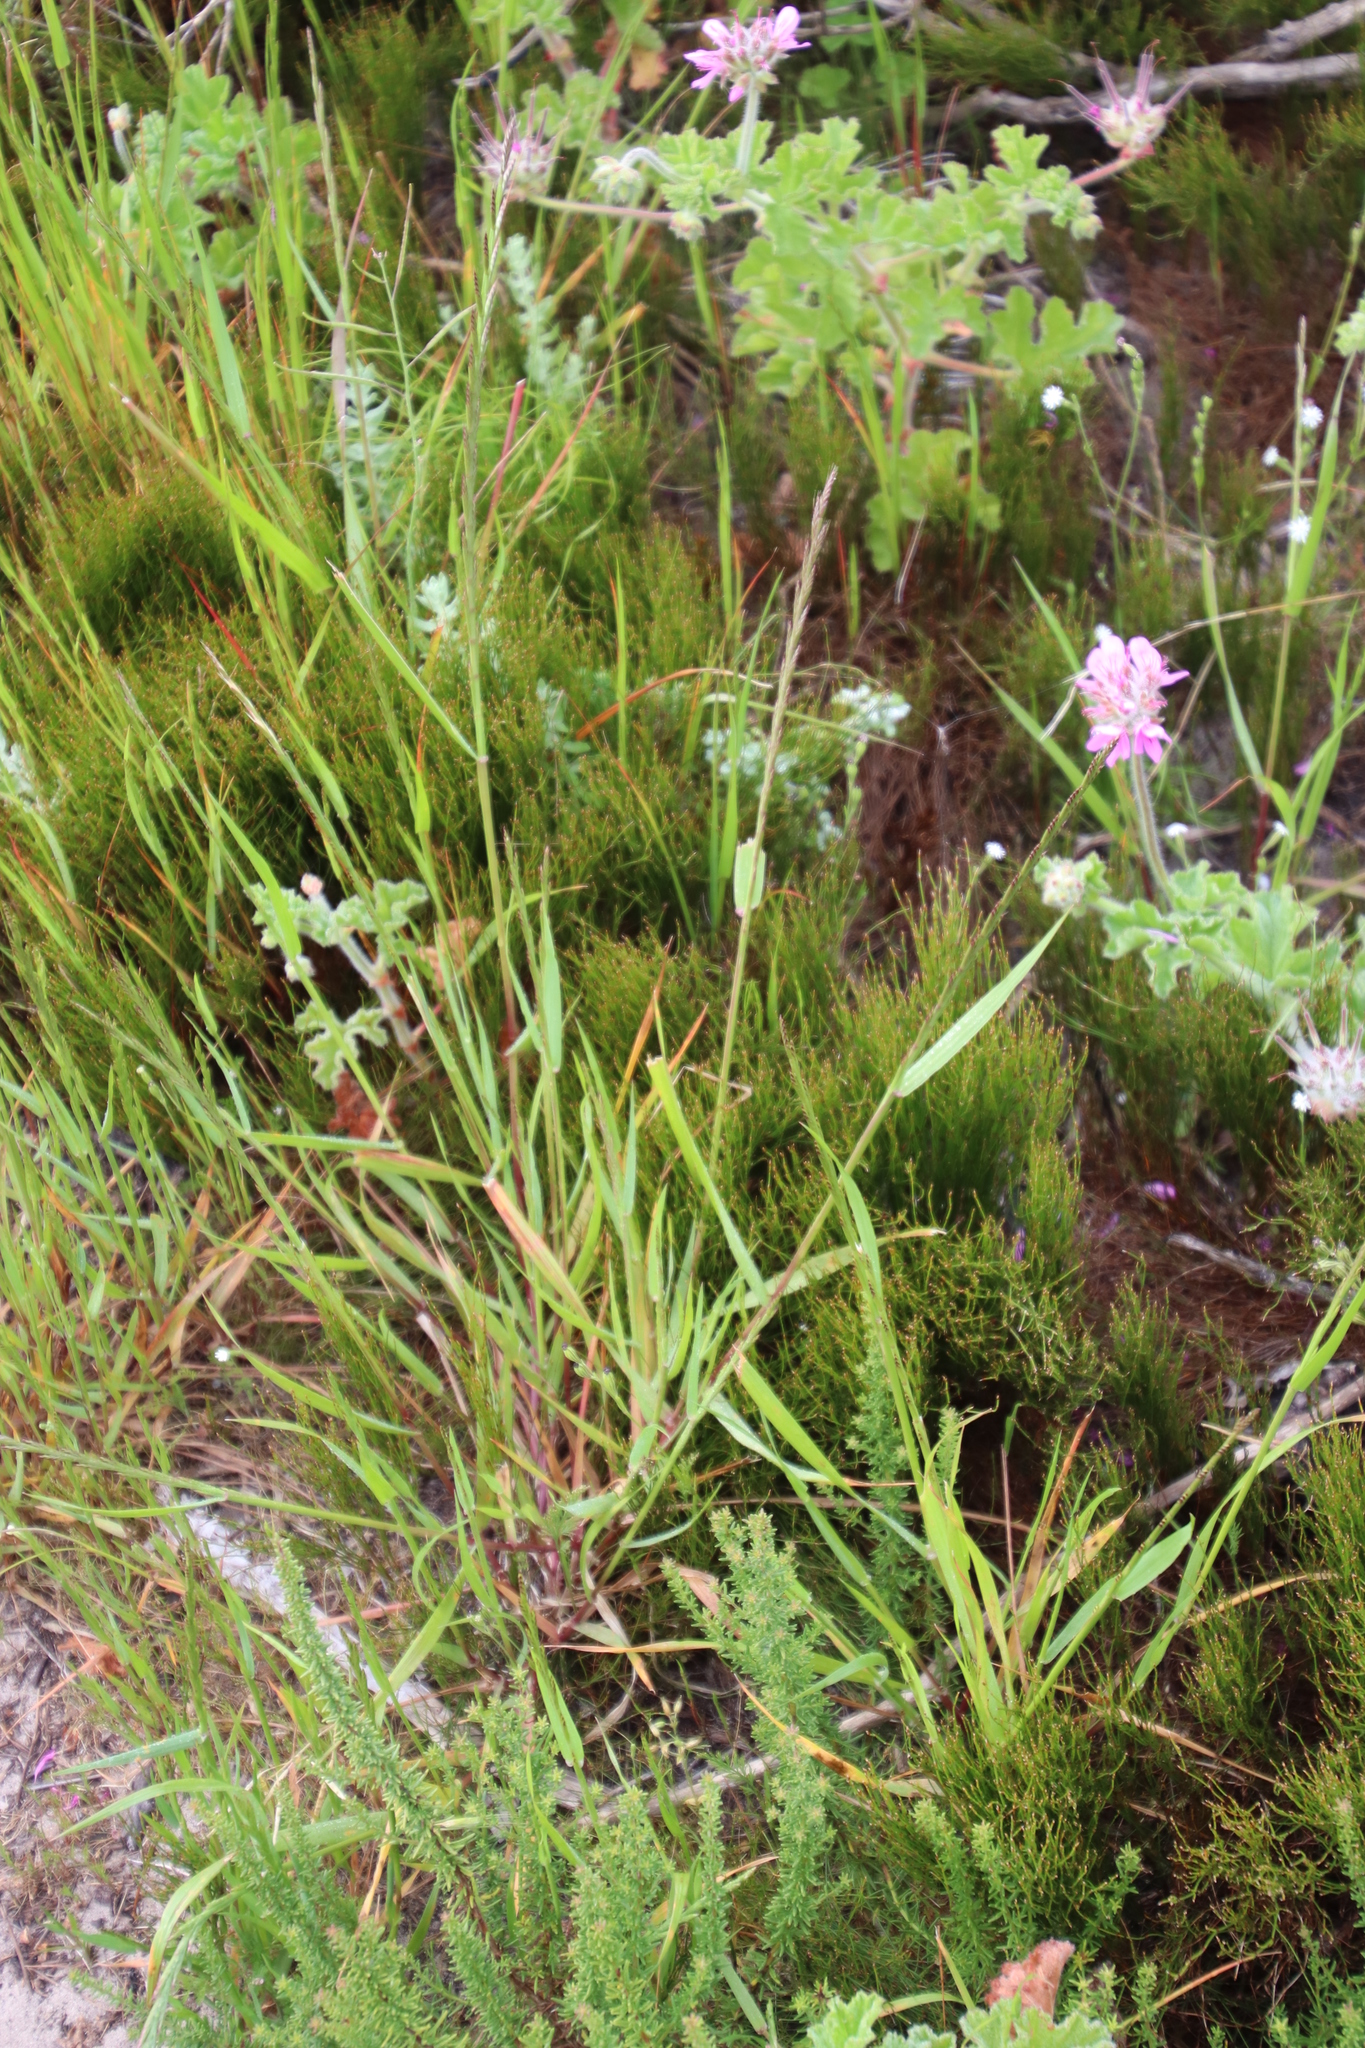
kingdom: Plantae
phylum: Tracheophyta
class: Liliopsida
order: Poales
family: Poaceae
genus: Lolium
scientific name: Lolium
